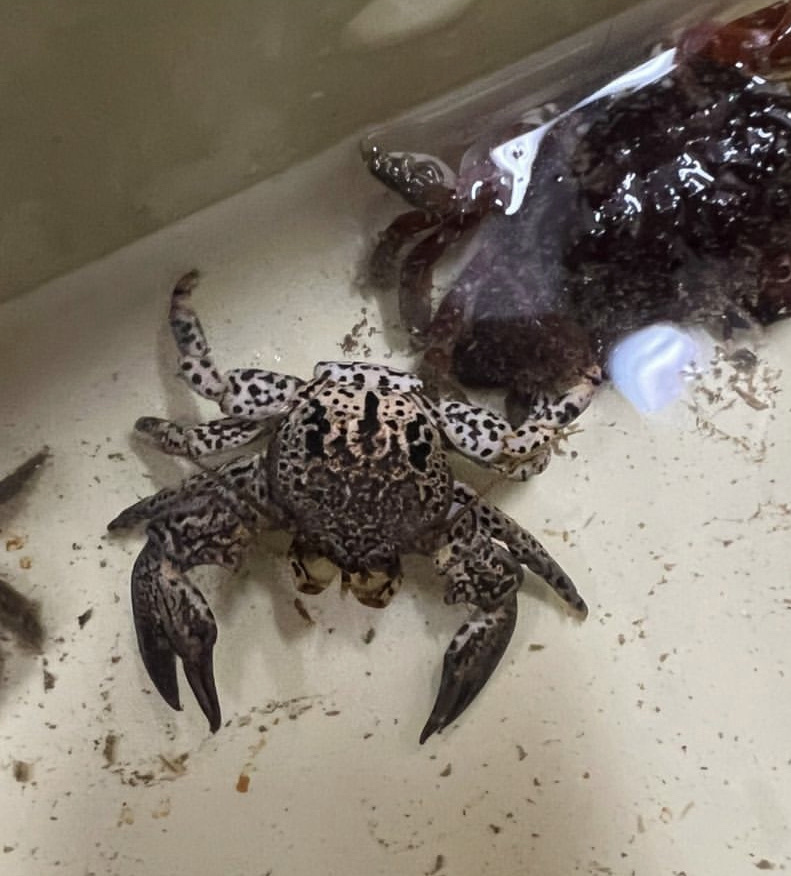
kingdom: Animalia
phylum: Arthropoda
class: Malacostraca
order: Decapoda
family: Porcellanidae
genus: Petrolisthes
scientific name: Petrolisthes angulosus
